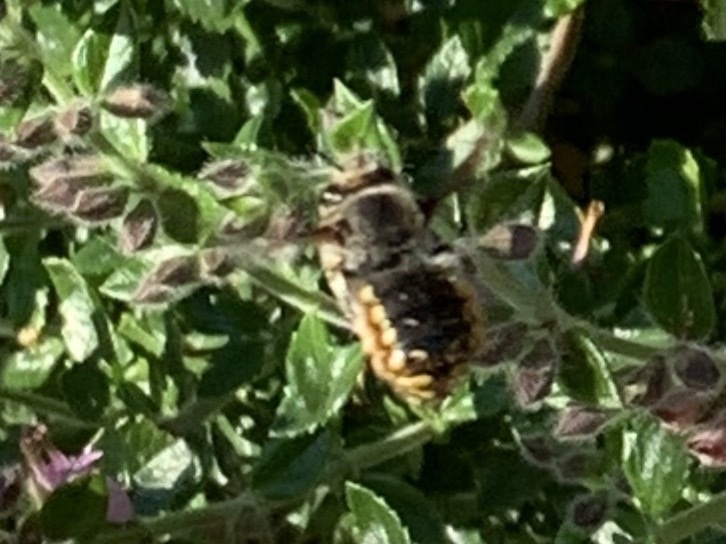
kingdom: Animalia
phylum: Arthropoda
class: Insecta
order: Hymenoptera
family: Megachilidae
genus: Anthidium
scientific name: Anthidium manicatum
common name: Wool carder bee
